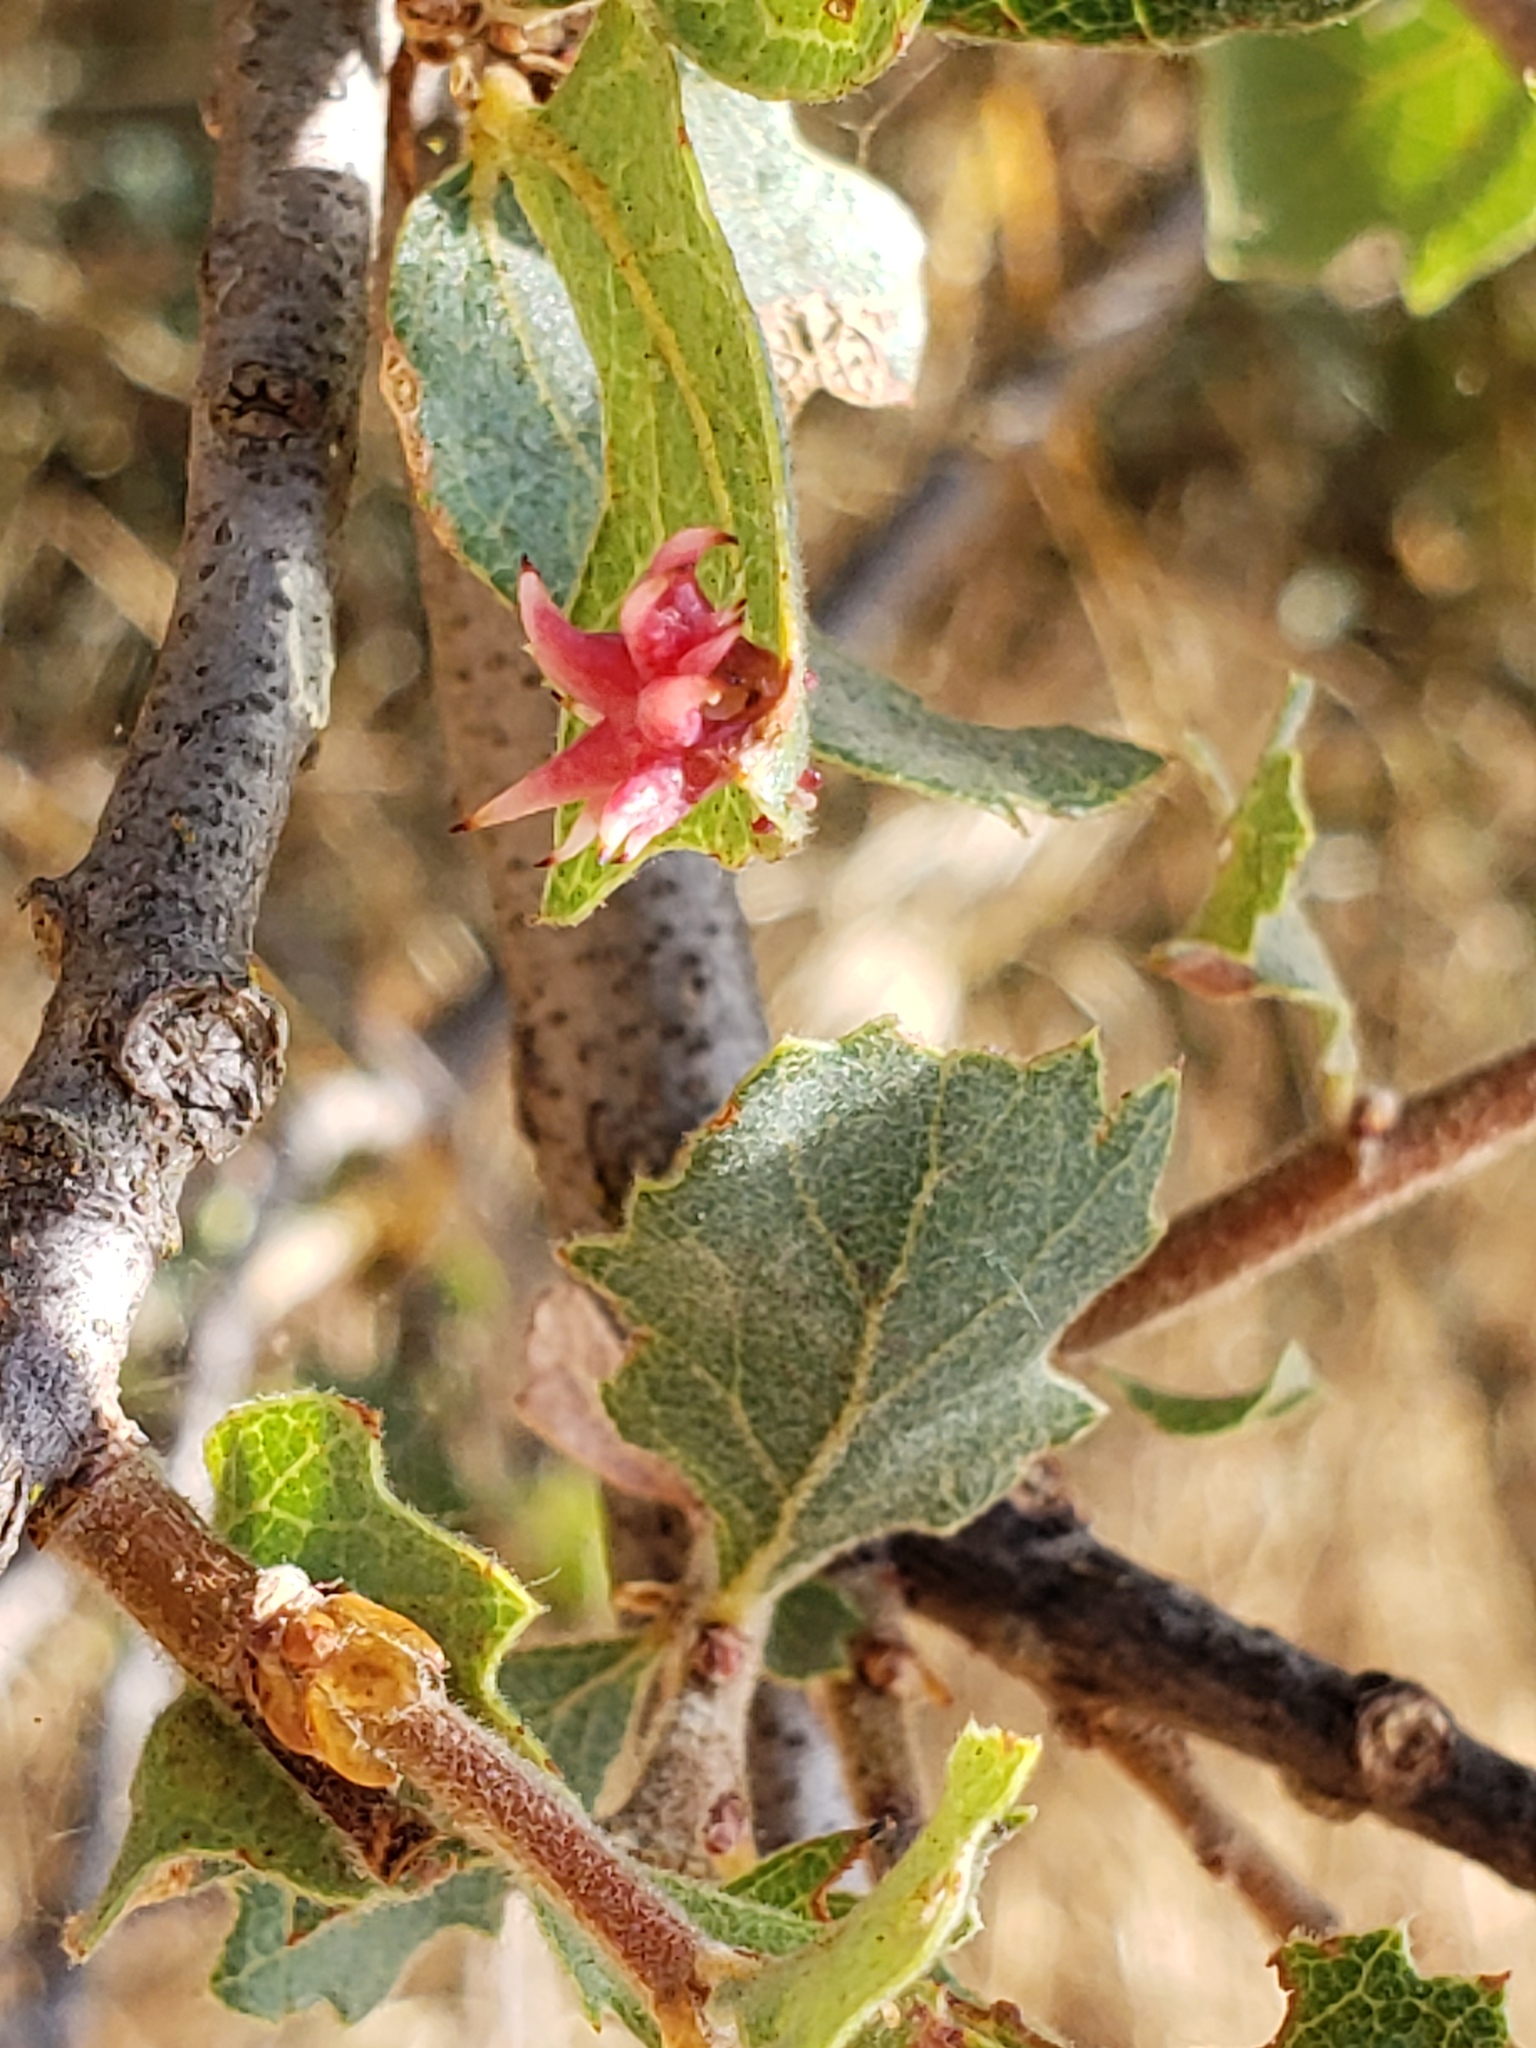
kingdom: Animalia
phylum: Arthropoda
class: Insecta
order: Hymenoptera
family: Cynipidae
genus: Cynips
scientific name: Cynips
